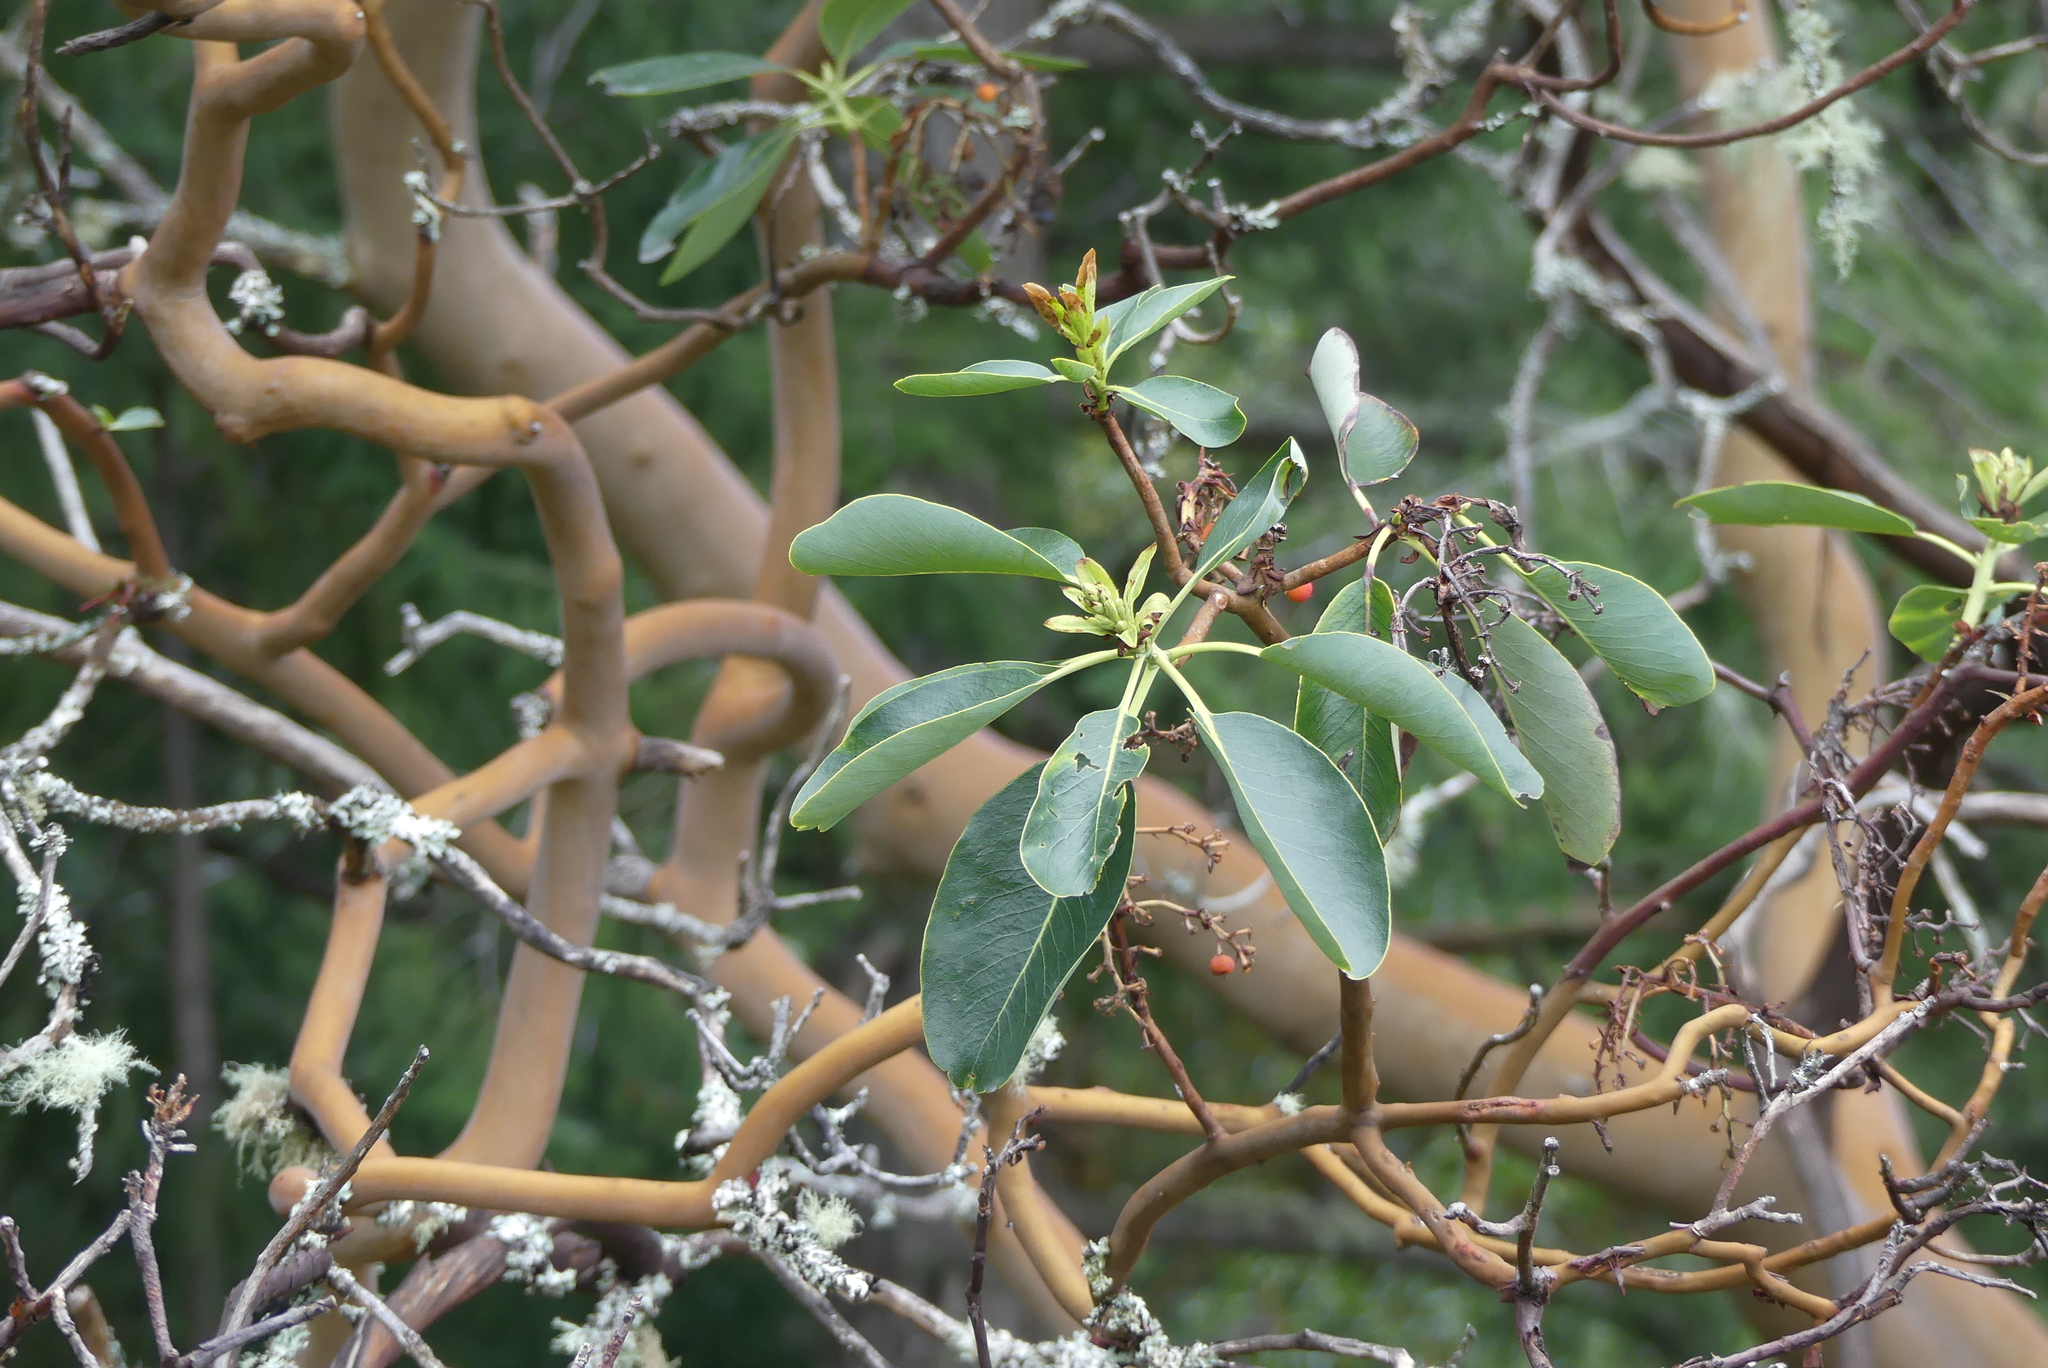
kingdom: Plantae
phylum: Tracheophyta
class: Magnoliopsida
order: Ericales
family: Ericaceae
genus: Arbutus
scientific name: Arbutus menziesii
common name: Pacific madrone
